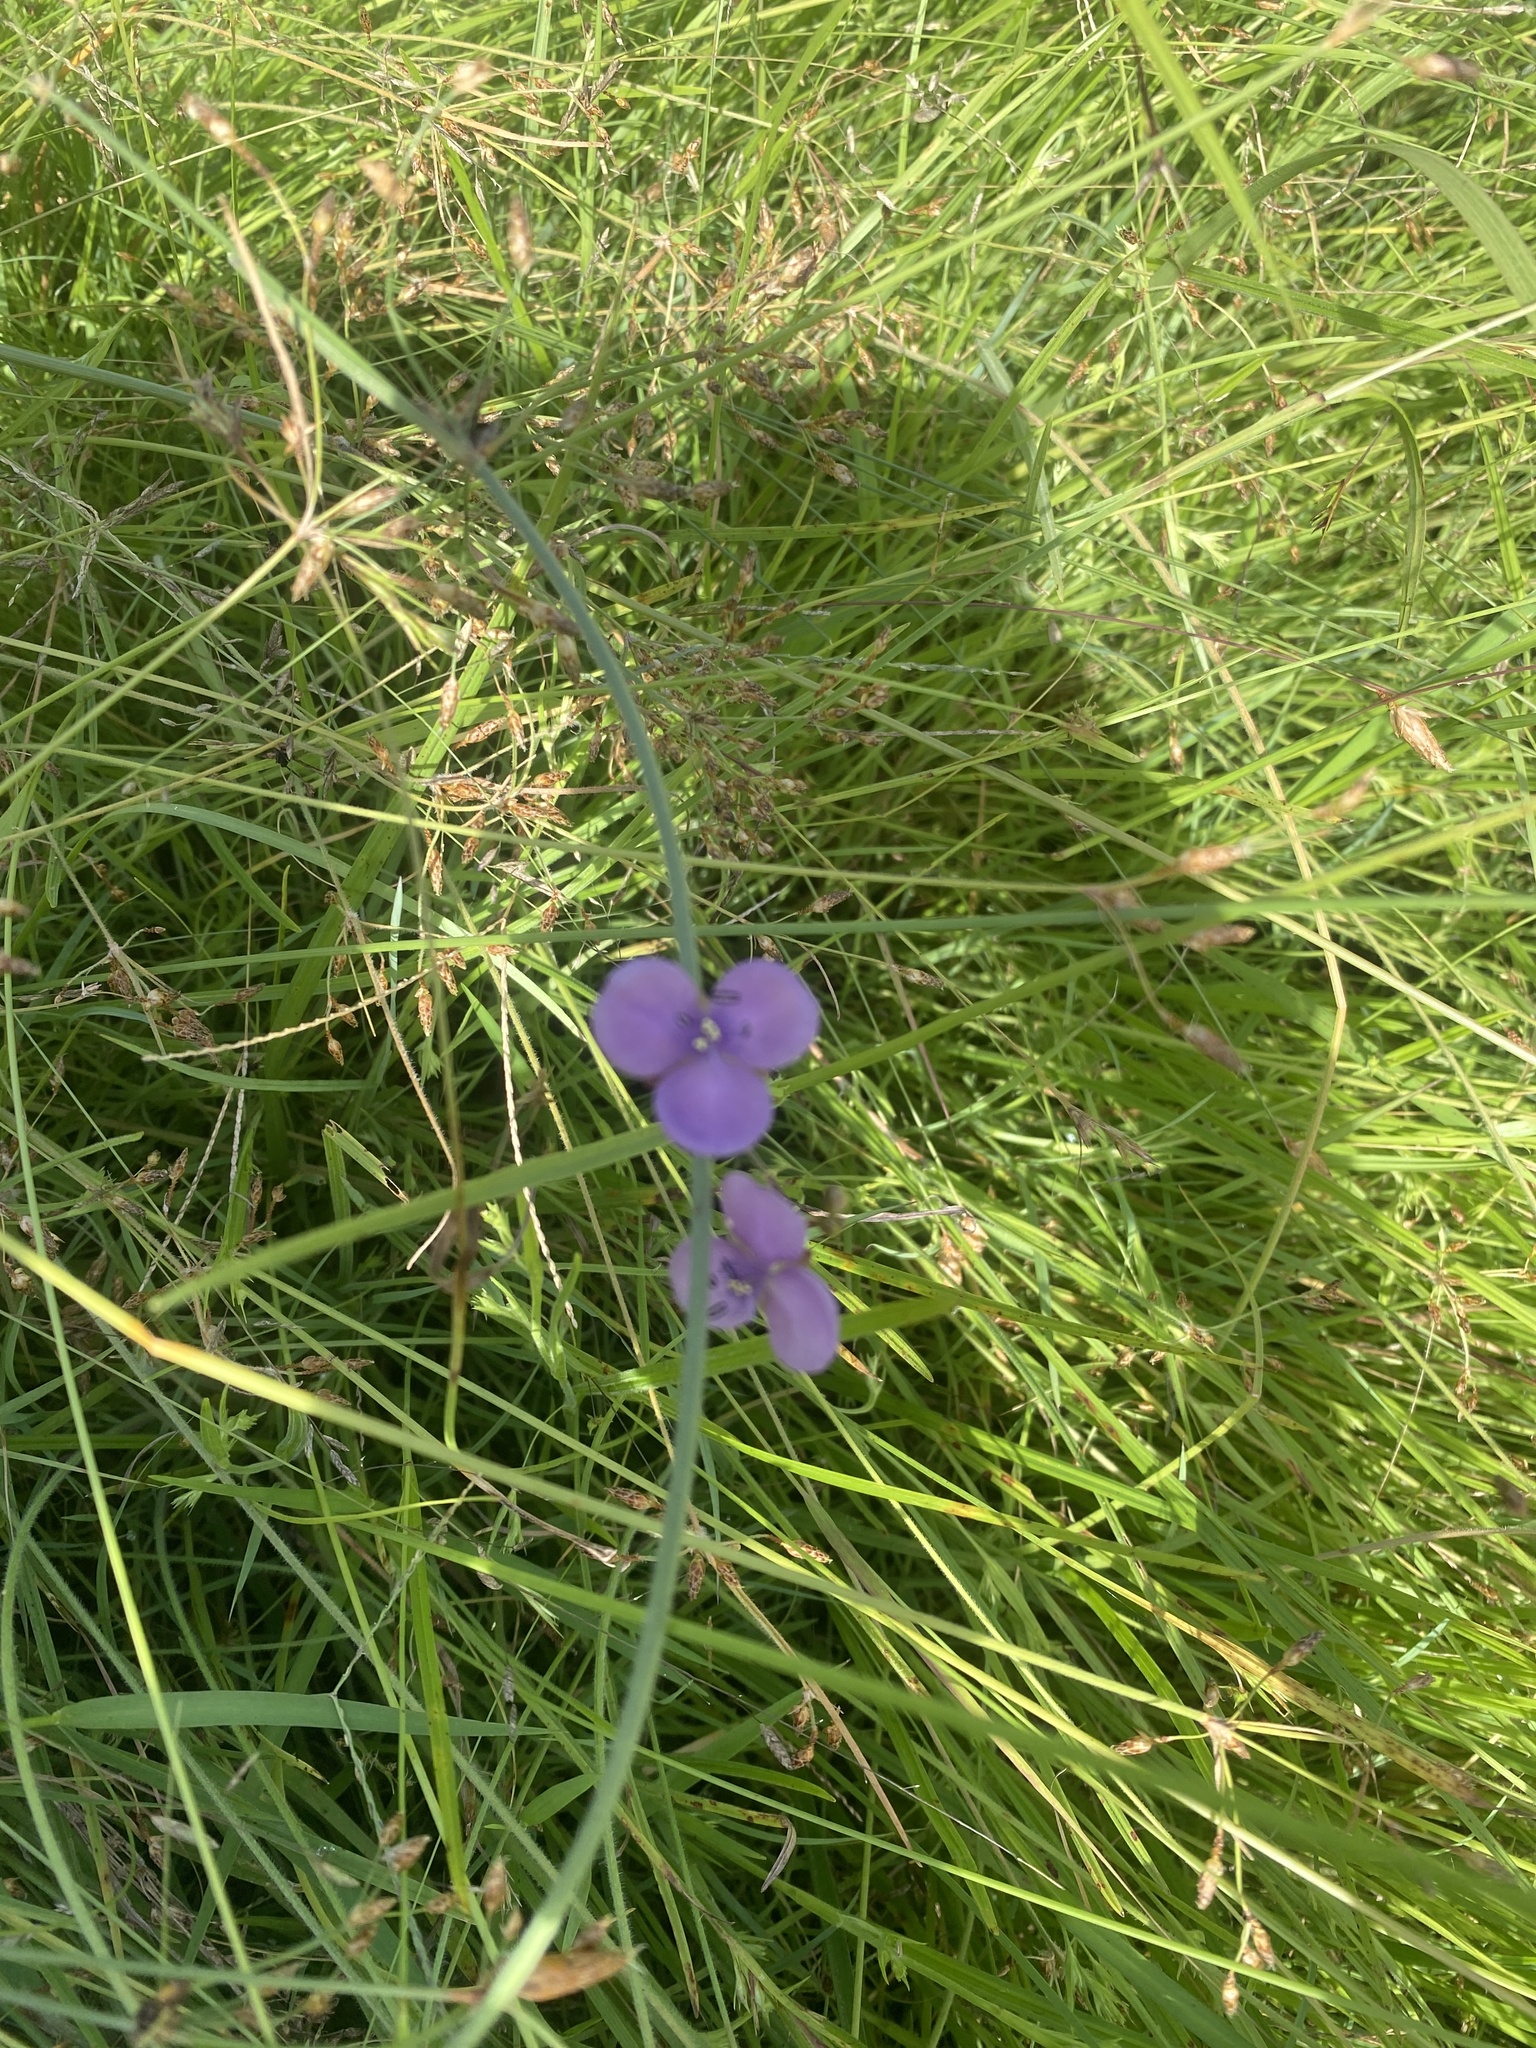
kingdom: Plantae
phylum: Tracheophyta
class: Liliopsida
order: Commelinales
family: Commelinaceae
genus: Murdannia
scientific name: Murdannia graminea
